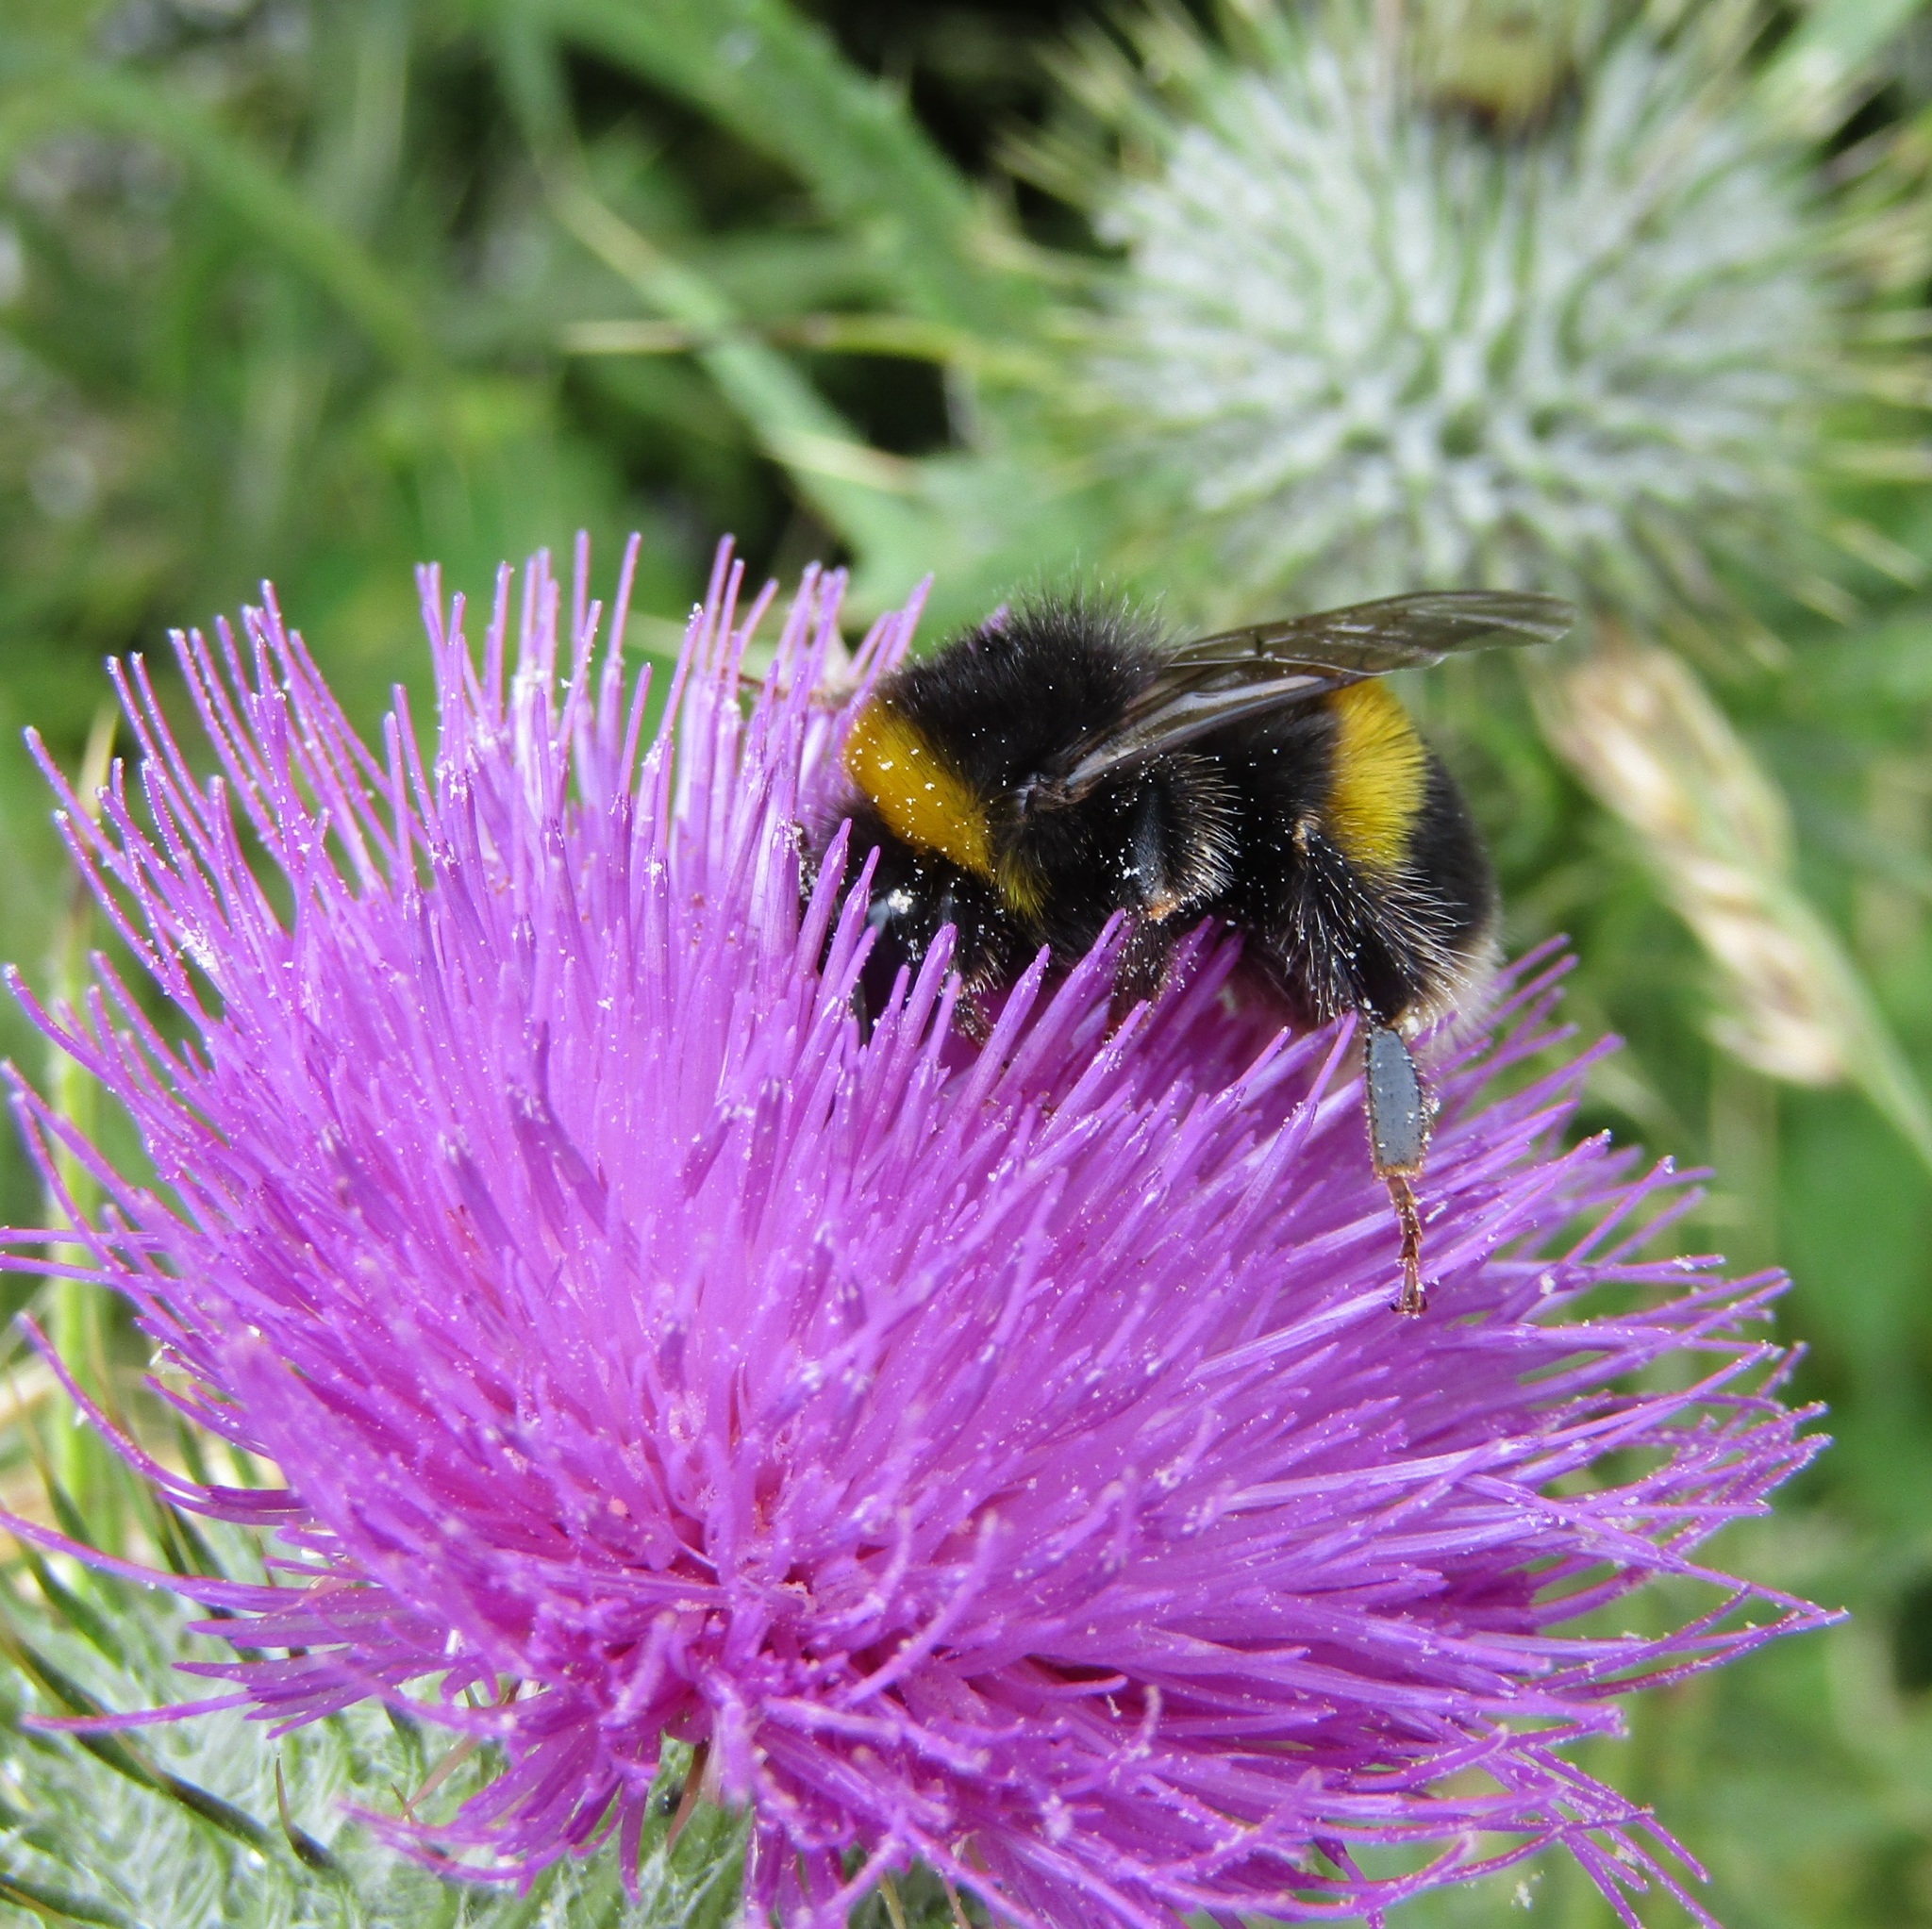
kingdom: Animalia
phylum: Arthropoda
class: Insecta
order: Hymenoptera
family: Apidae
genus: Bombus
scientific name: Bombus terrestris
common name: Buff-tailed bumblebee
